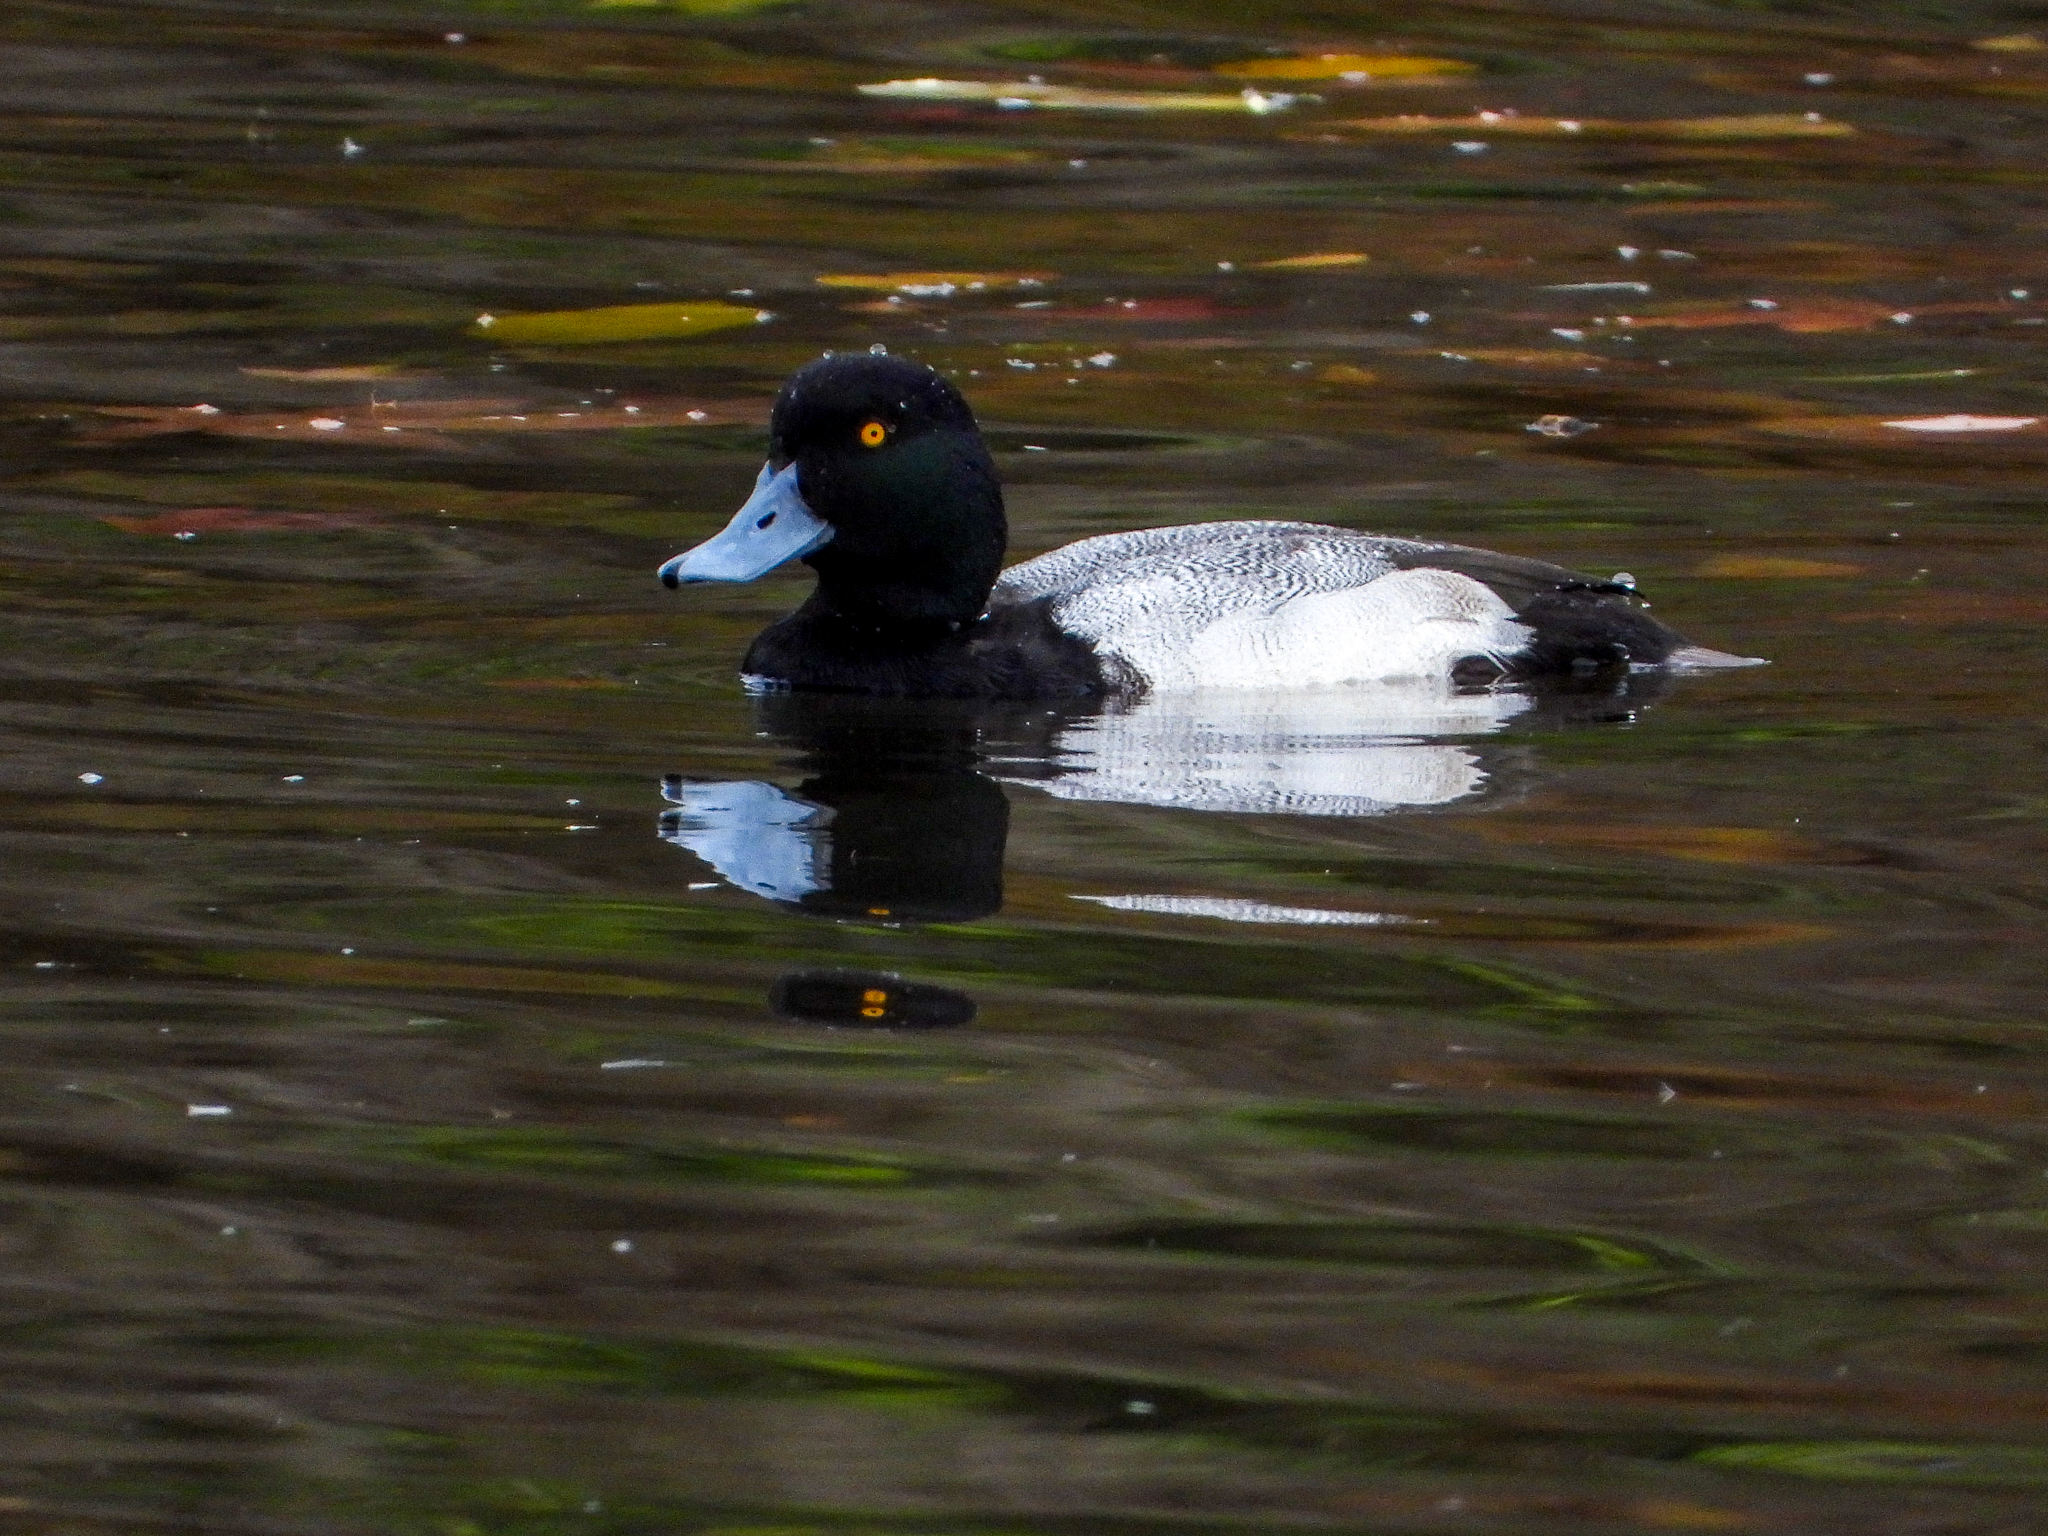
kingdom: Animalia
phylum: Chordata
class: Aves
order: Anseriformes
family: Anatidae
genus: Aythya
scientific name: Aythya marila
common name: Greater scaup
